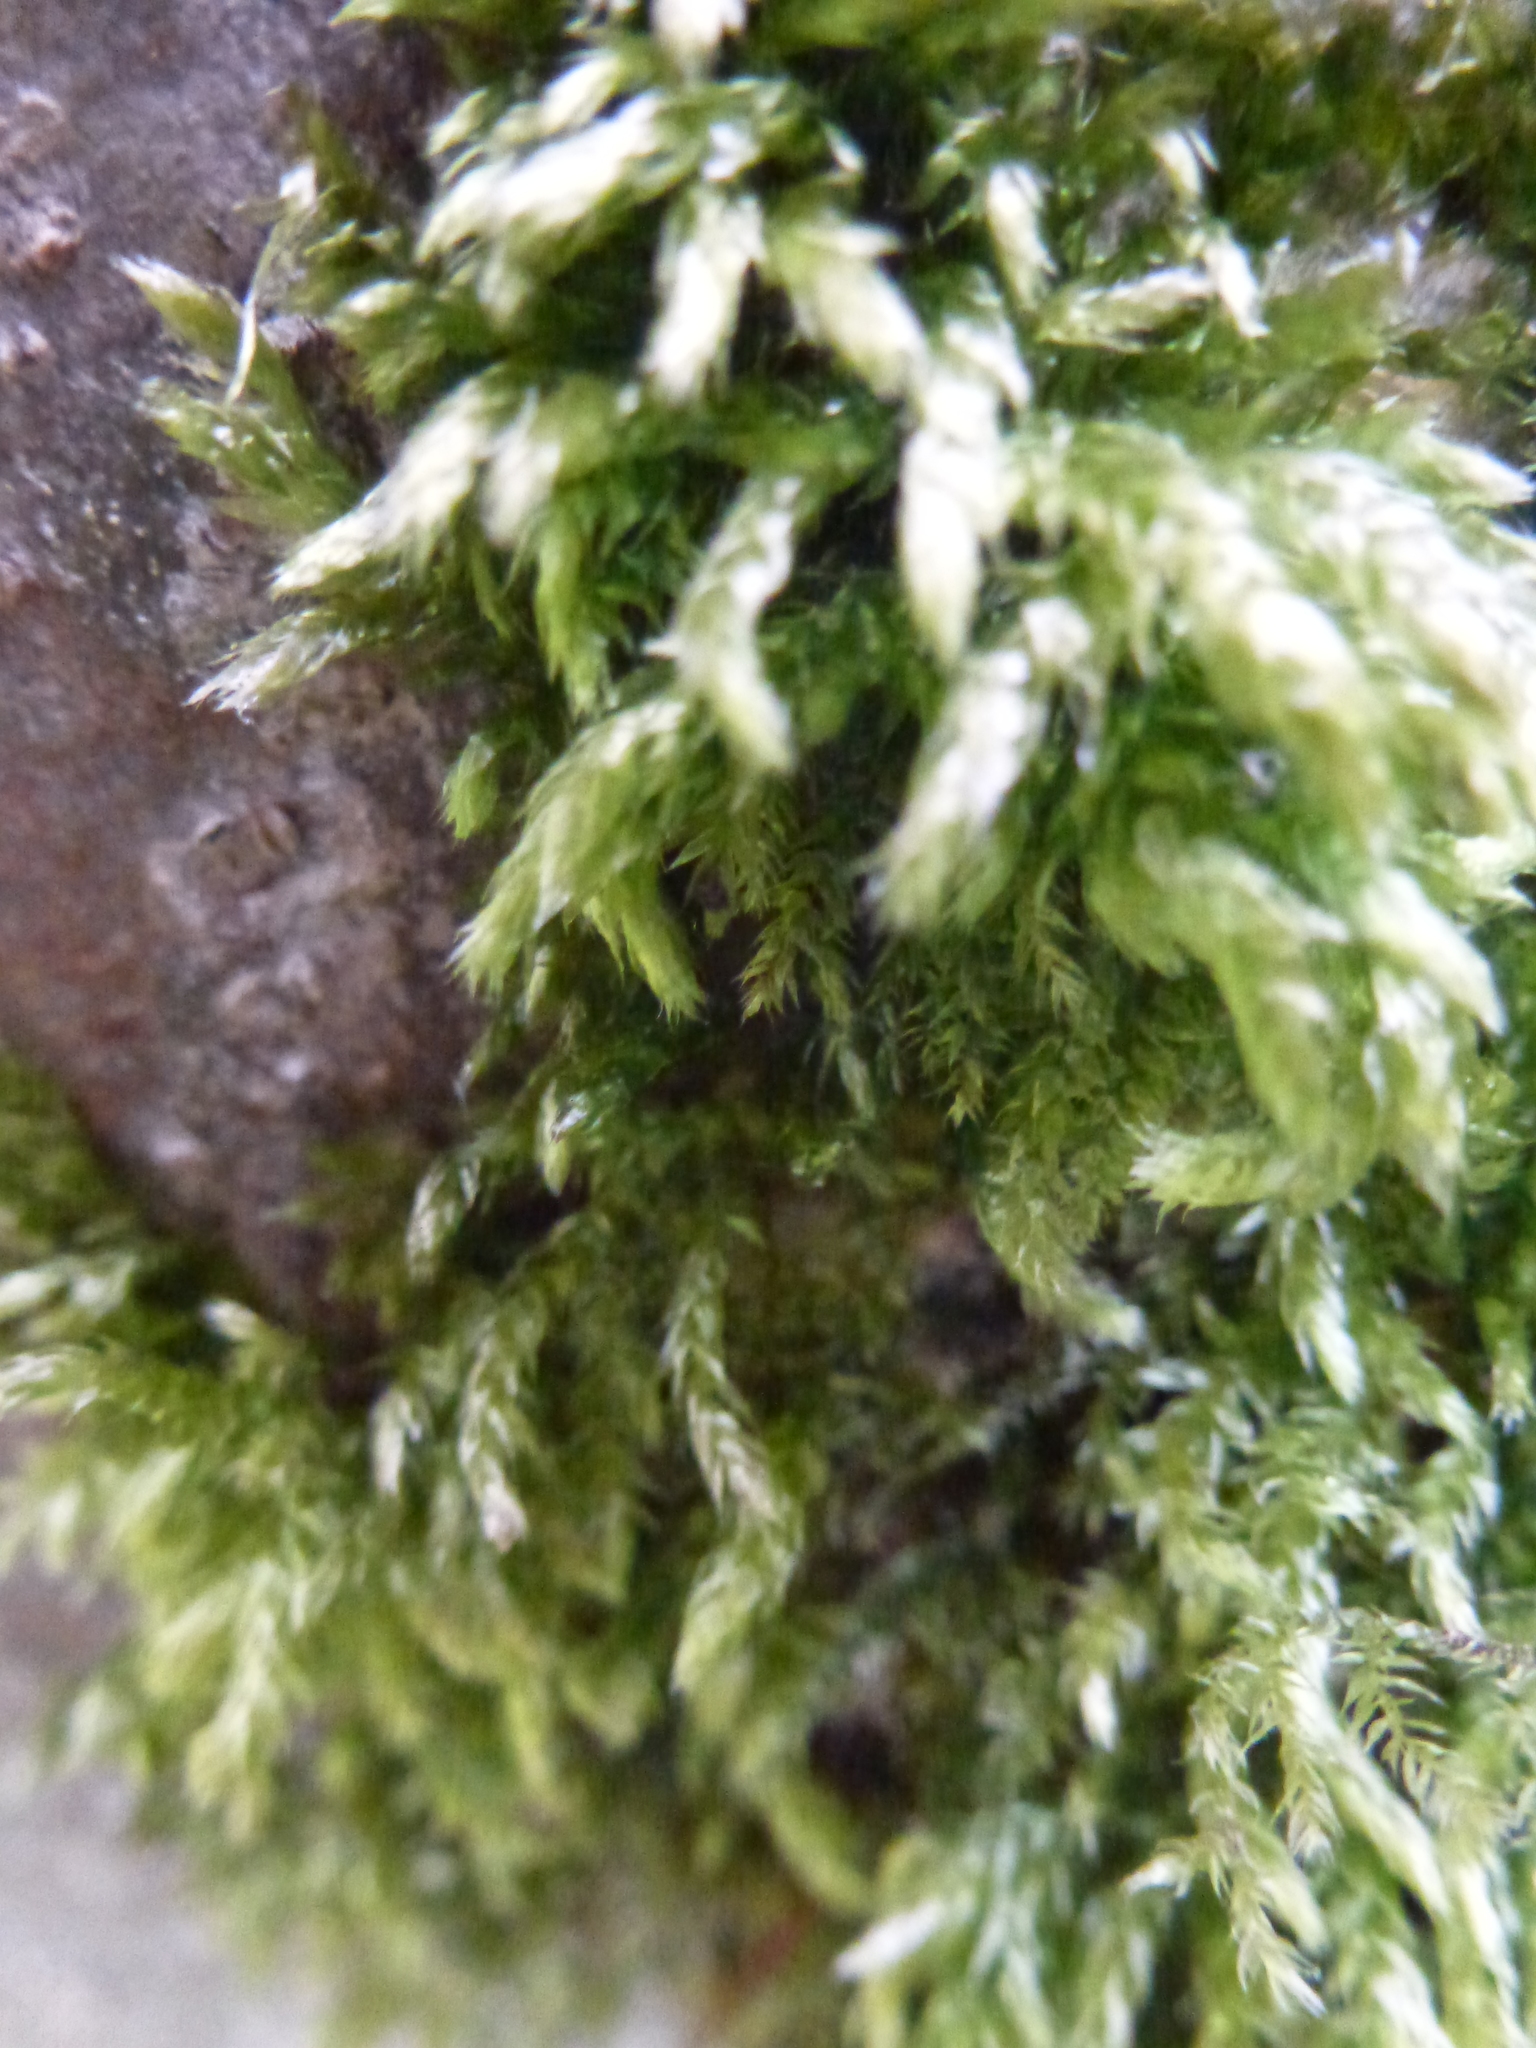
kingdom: Plantae
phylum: Bryophyta
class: Bryopsida
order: Hypnales
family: Brachytheciaceae
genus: Brachythecium
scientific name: Brachythecium rutabulum
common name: Rough-stalked feather-moss
